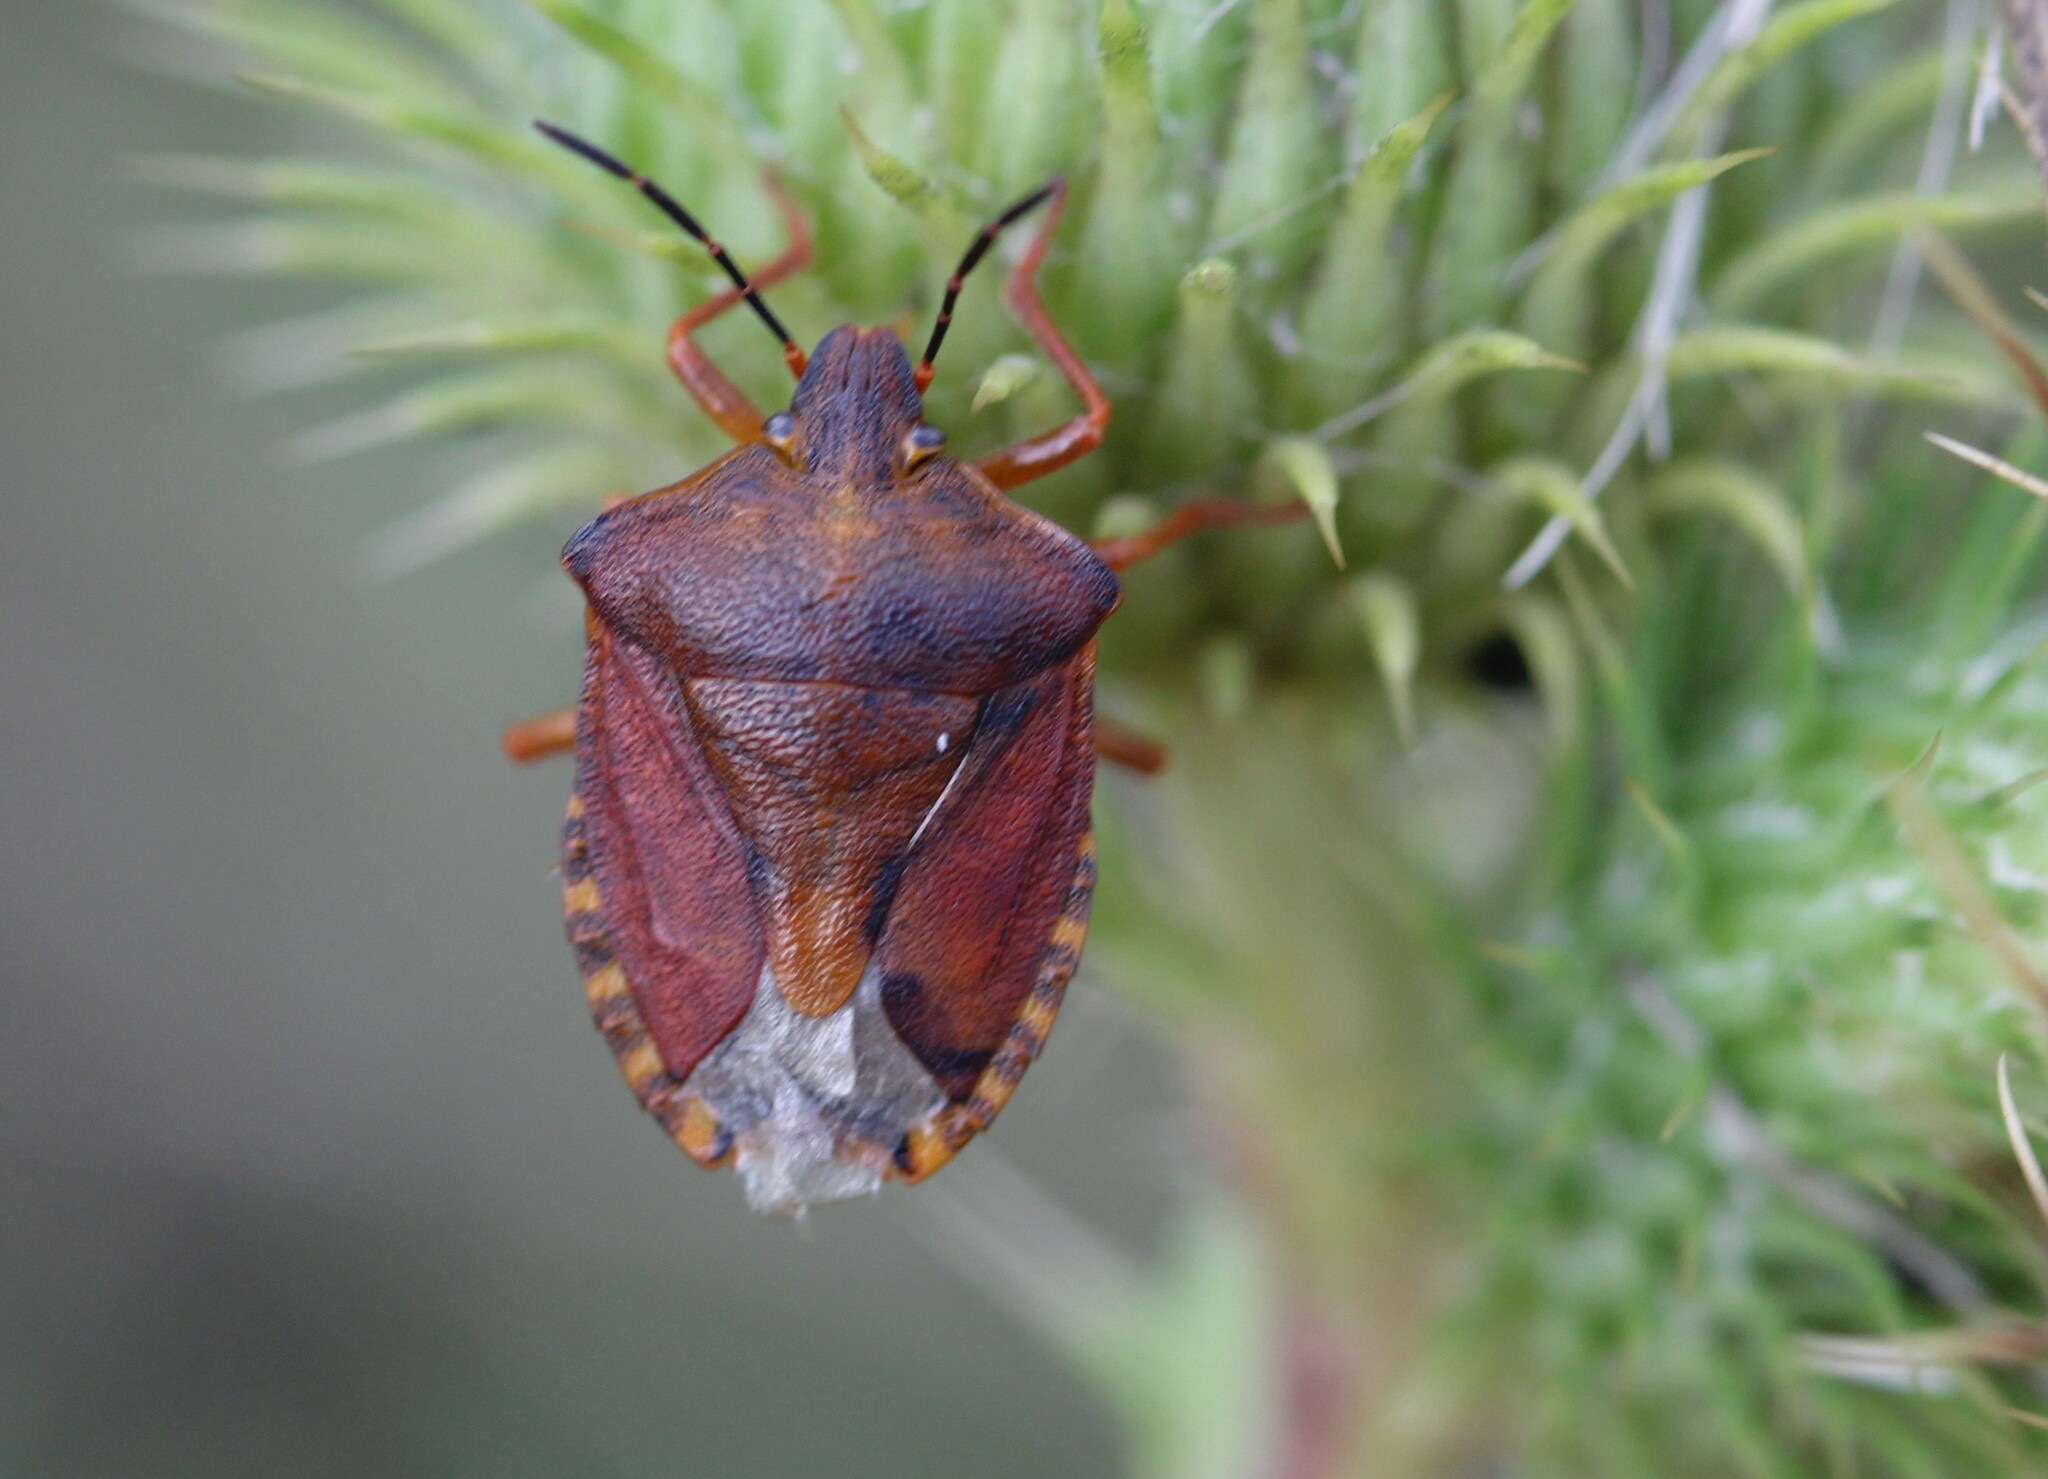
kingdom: Animalia
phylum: Arthropoda
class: Insecta
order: Hemiptera
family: Pentatomidae
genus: Carpocoris
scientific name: Carpocoris purpureipennis
